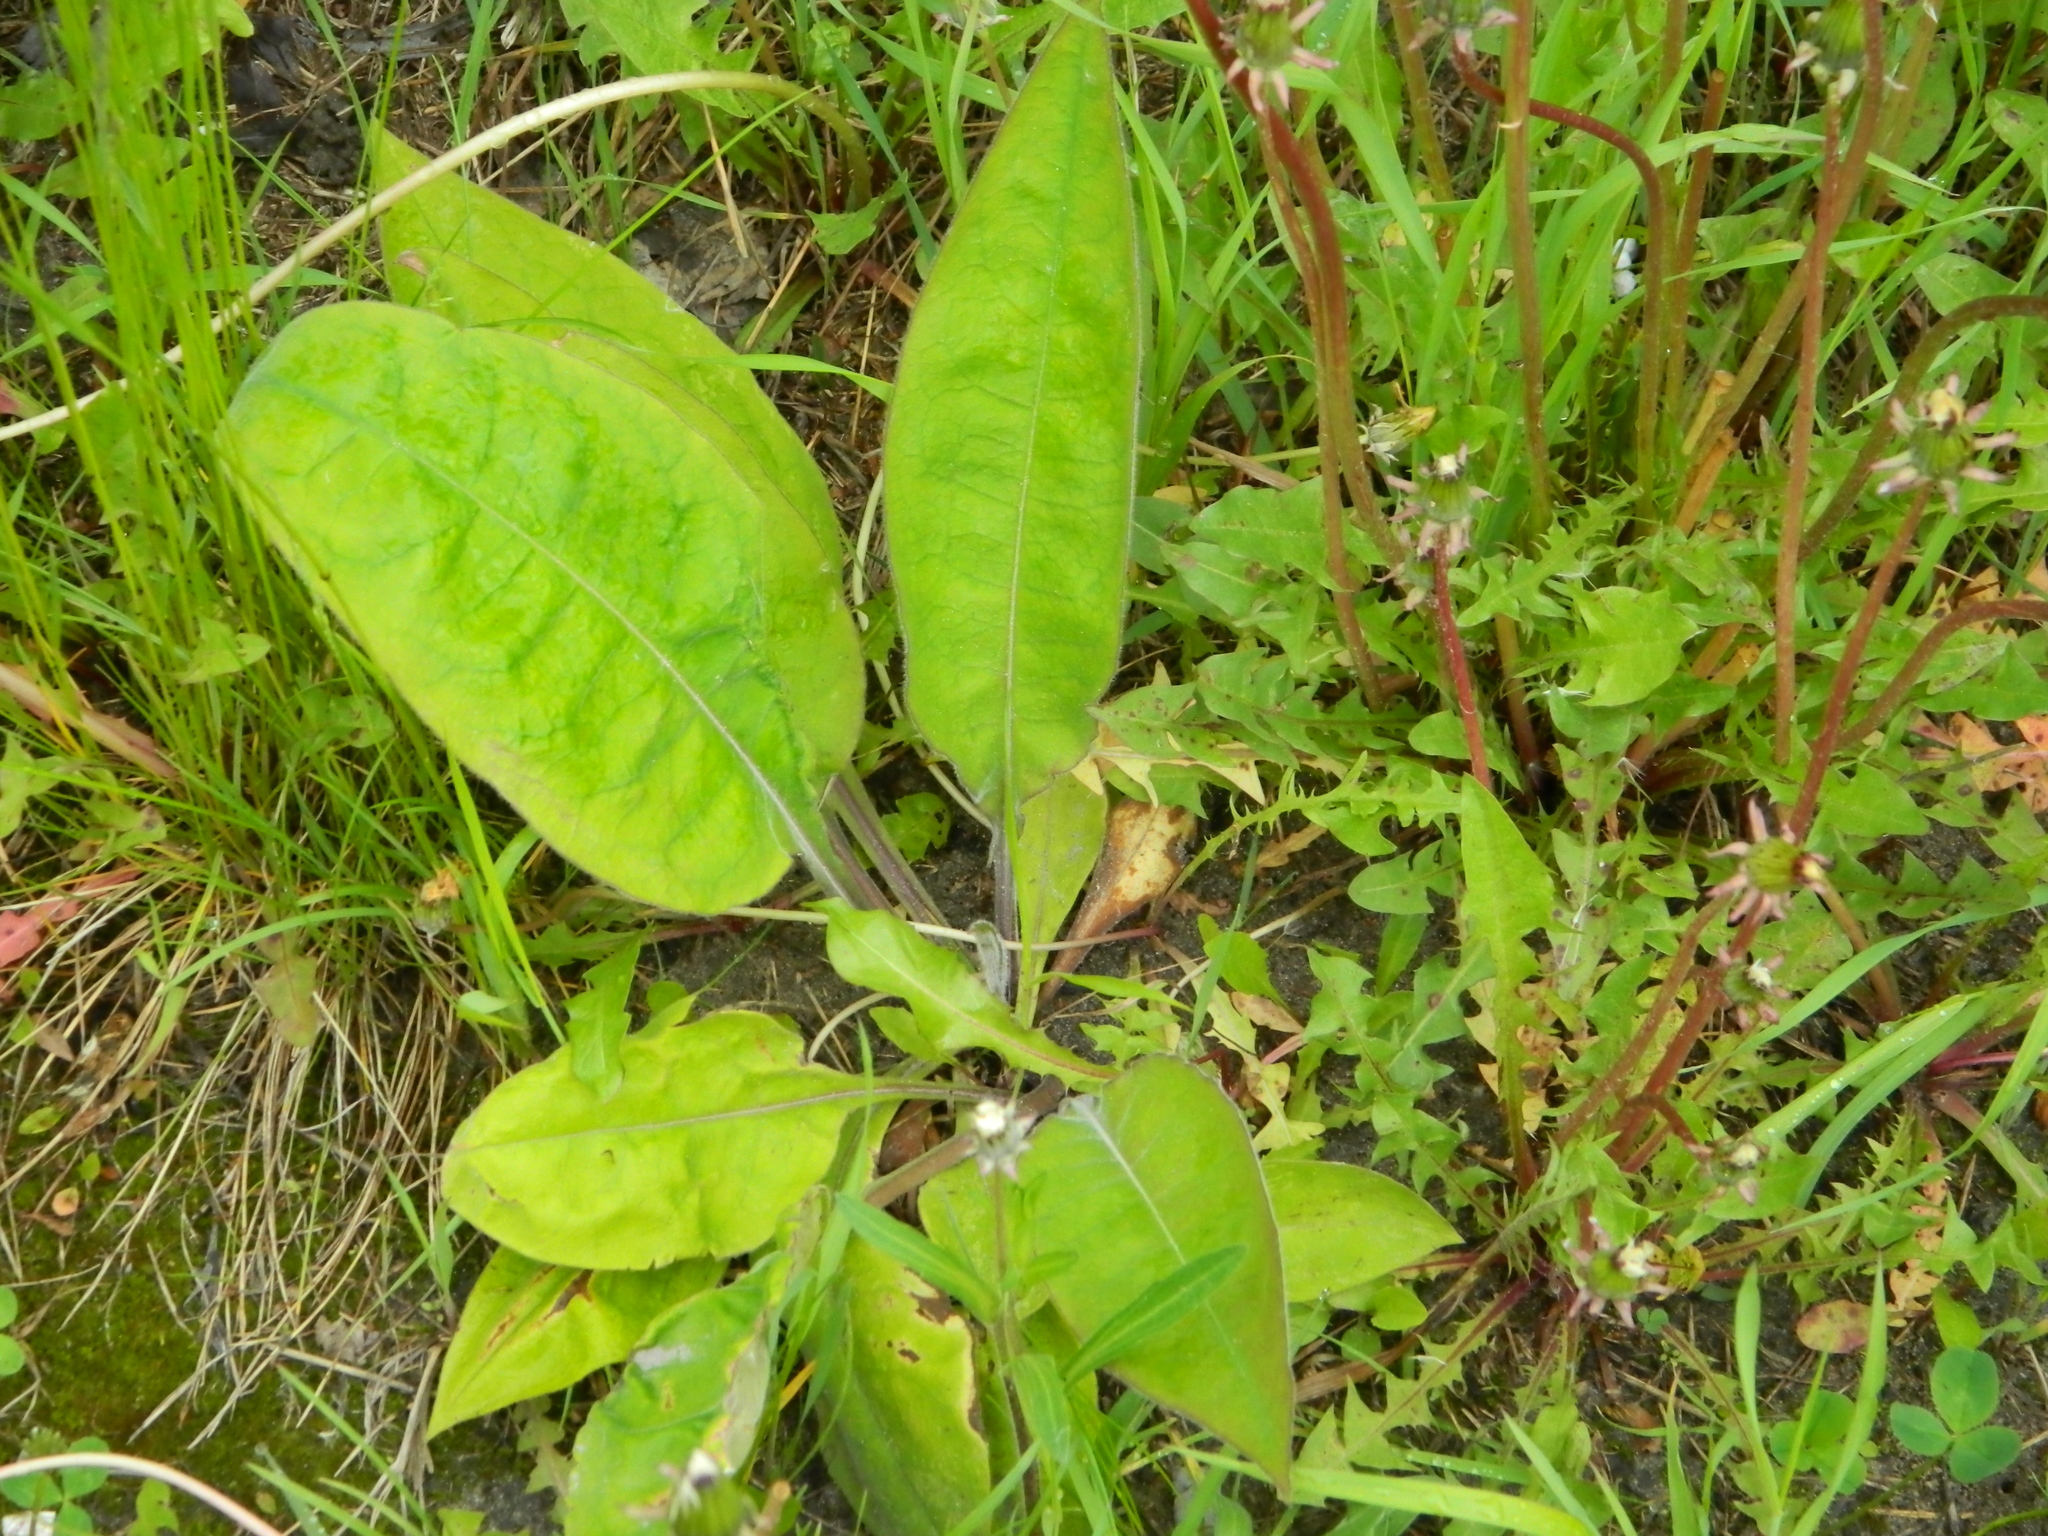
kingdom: Plantae
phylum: Tracheophyta
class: Magnoliopsida
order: Boraginales
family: Boraginaceae
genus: Pulmonaria
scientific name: Pulmonaria mollis
